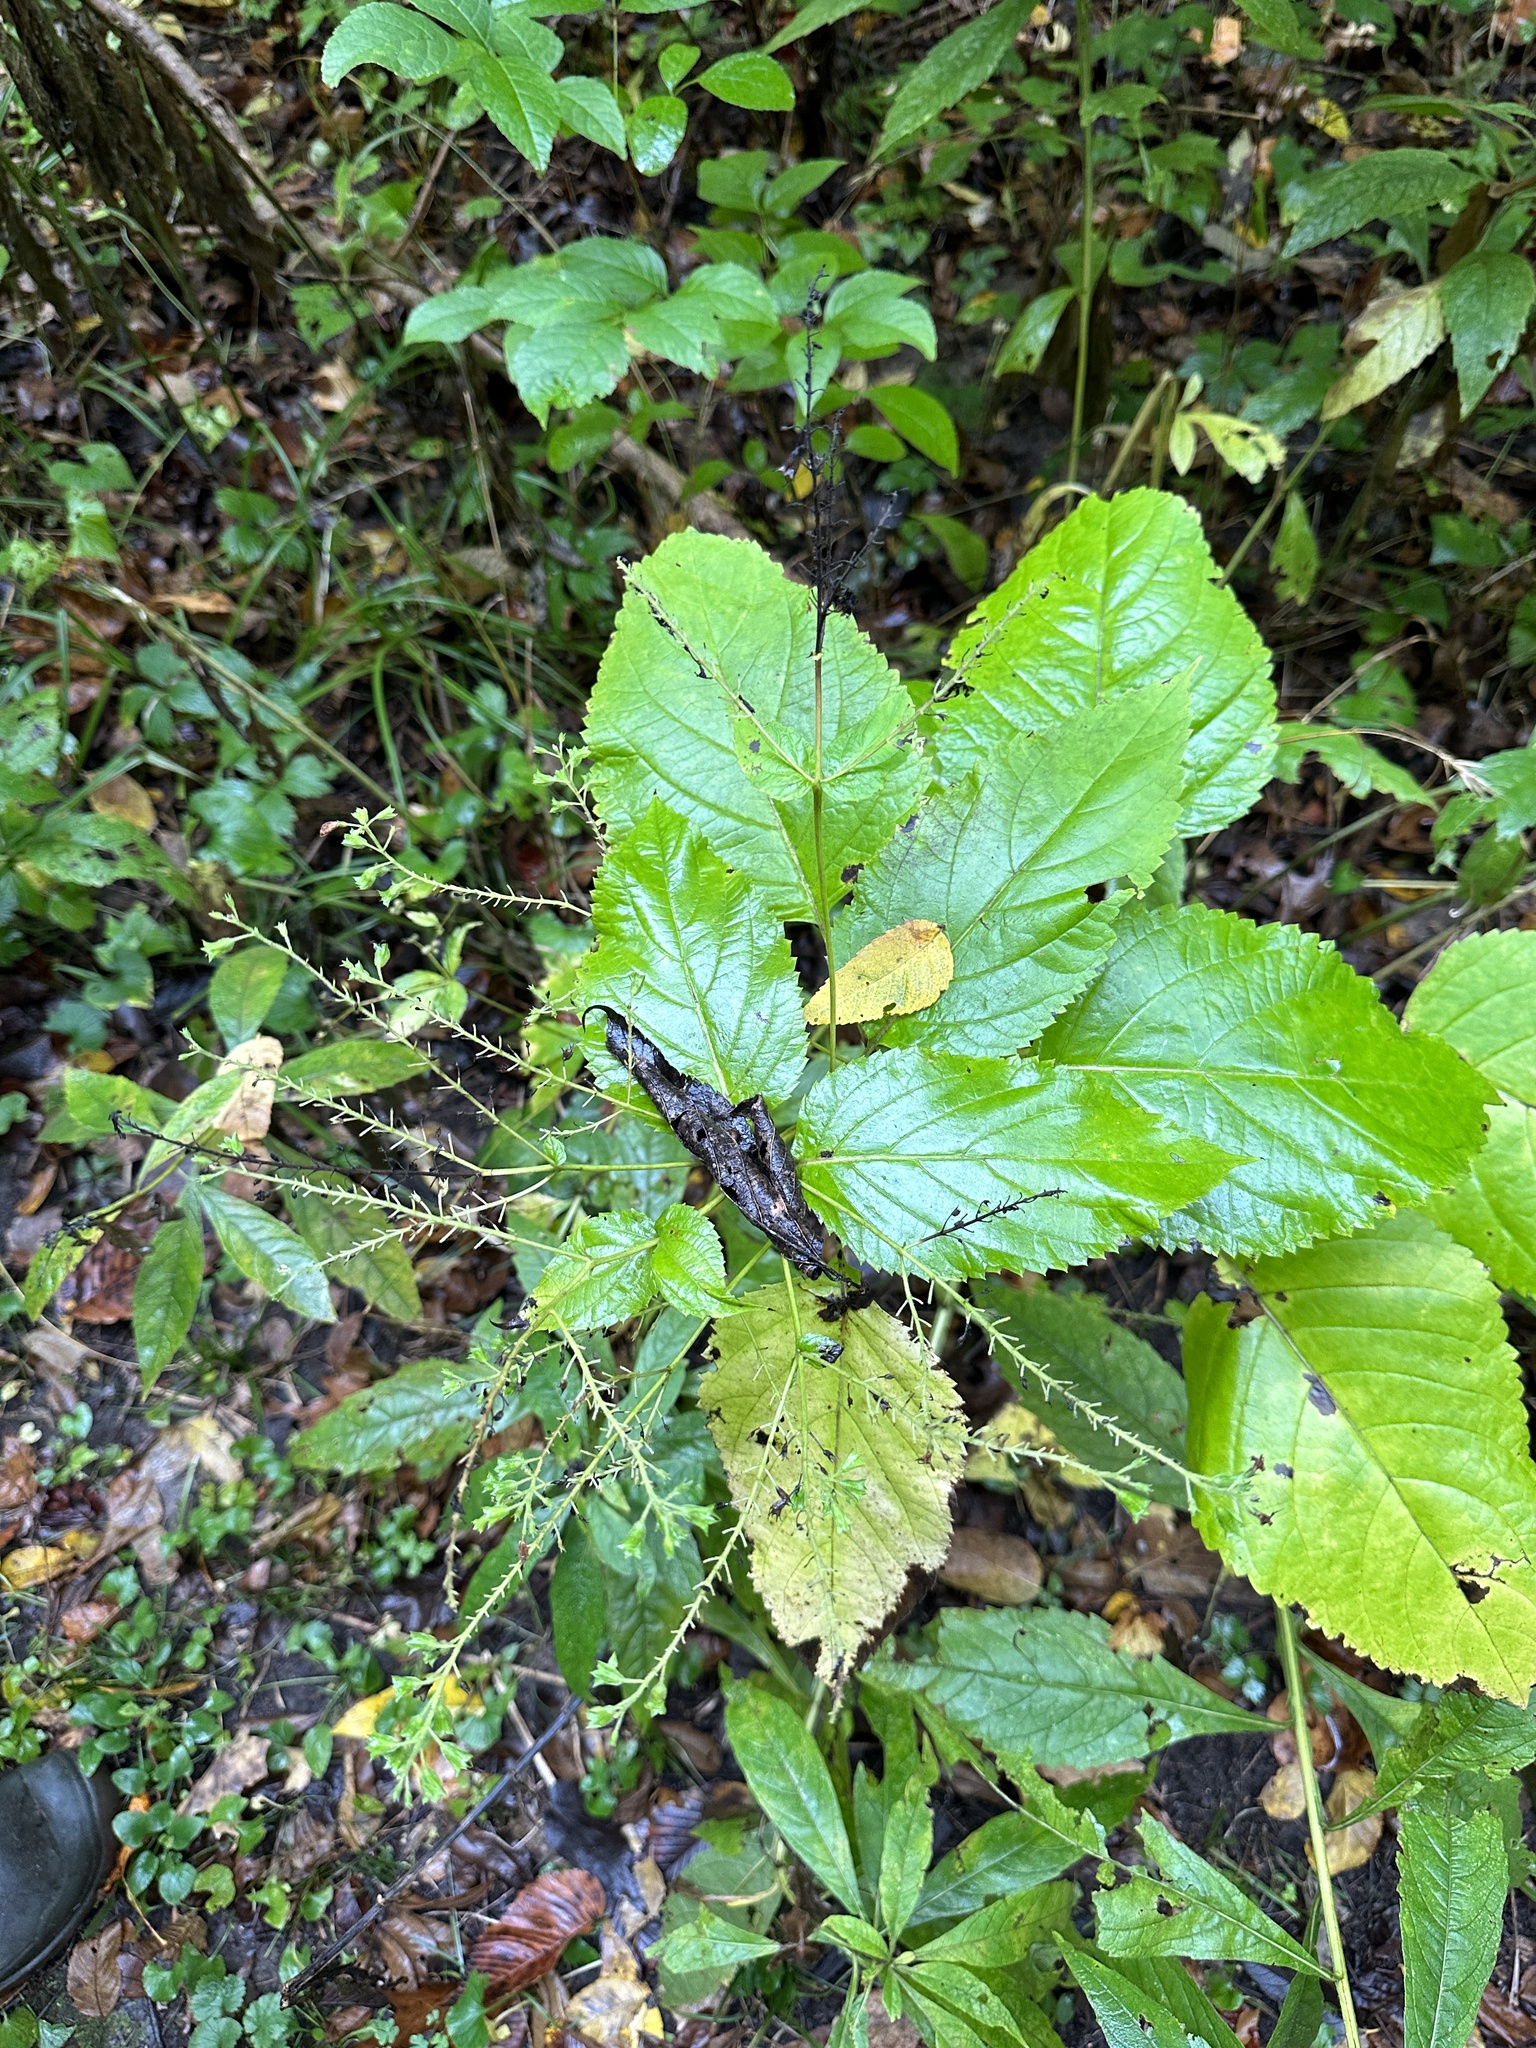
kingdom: Plantae
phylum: Tracheophyta
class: Magnoliopsida
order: Lamiales
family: Lamiaceae
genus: Collinsonia
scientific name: Collinsonia canadensis
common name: Northern horsebalm
